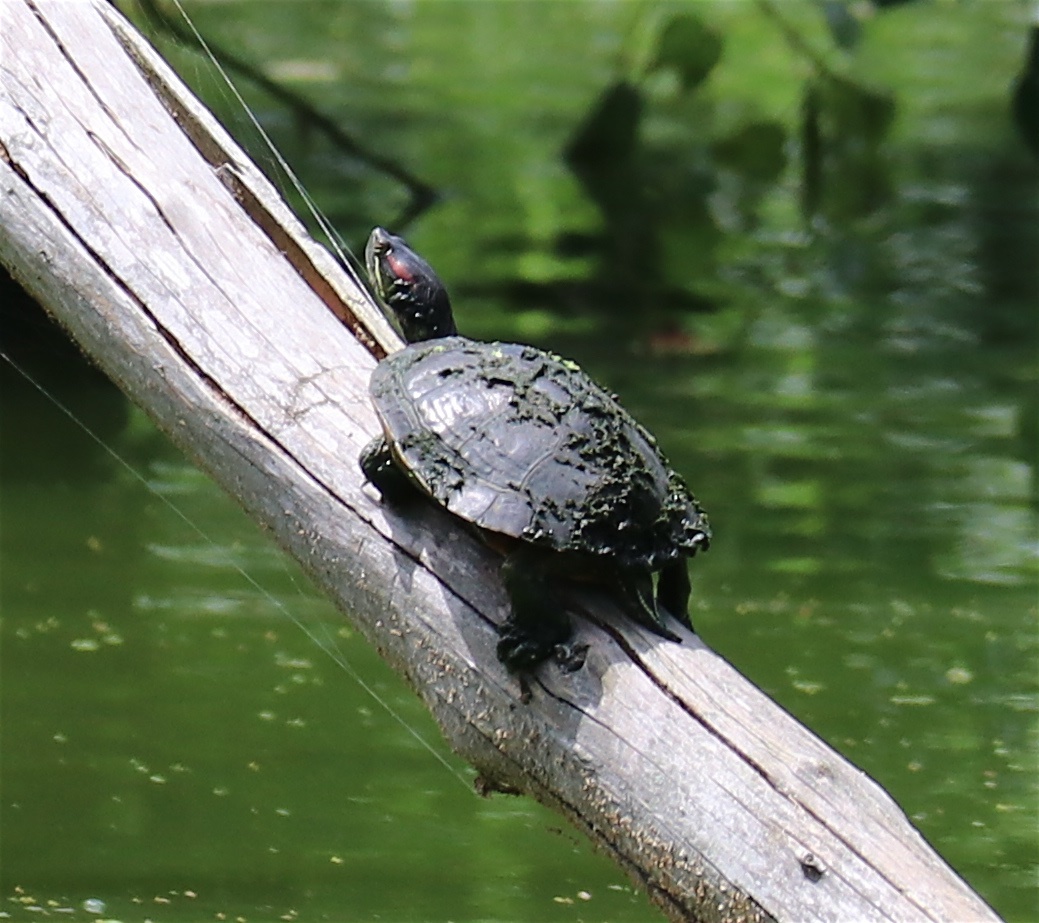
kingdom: Animalia
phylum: Chordata
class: Testudines
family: Emydidae
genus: Trachemys
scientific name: Trachemys scripta
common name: Slider
